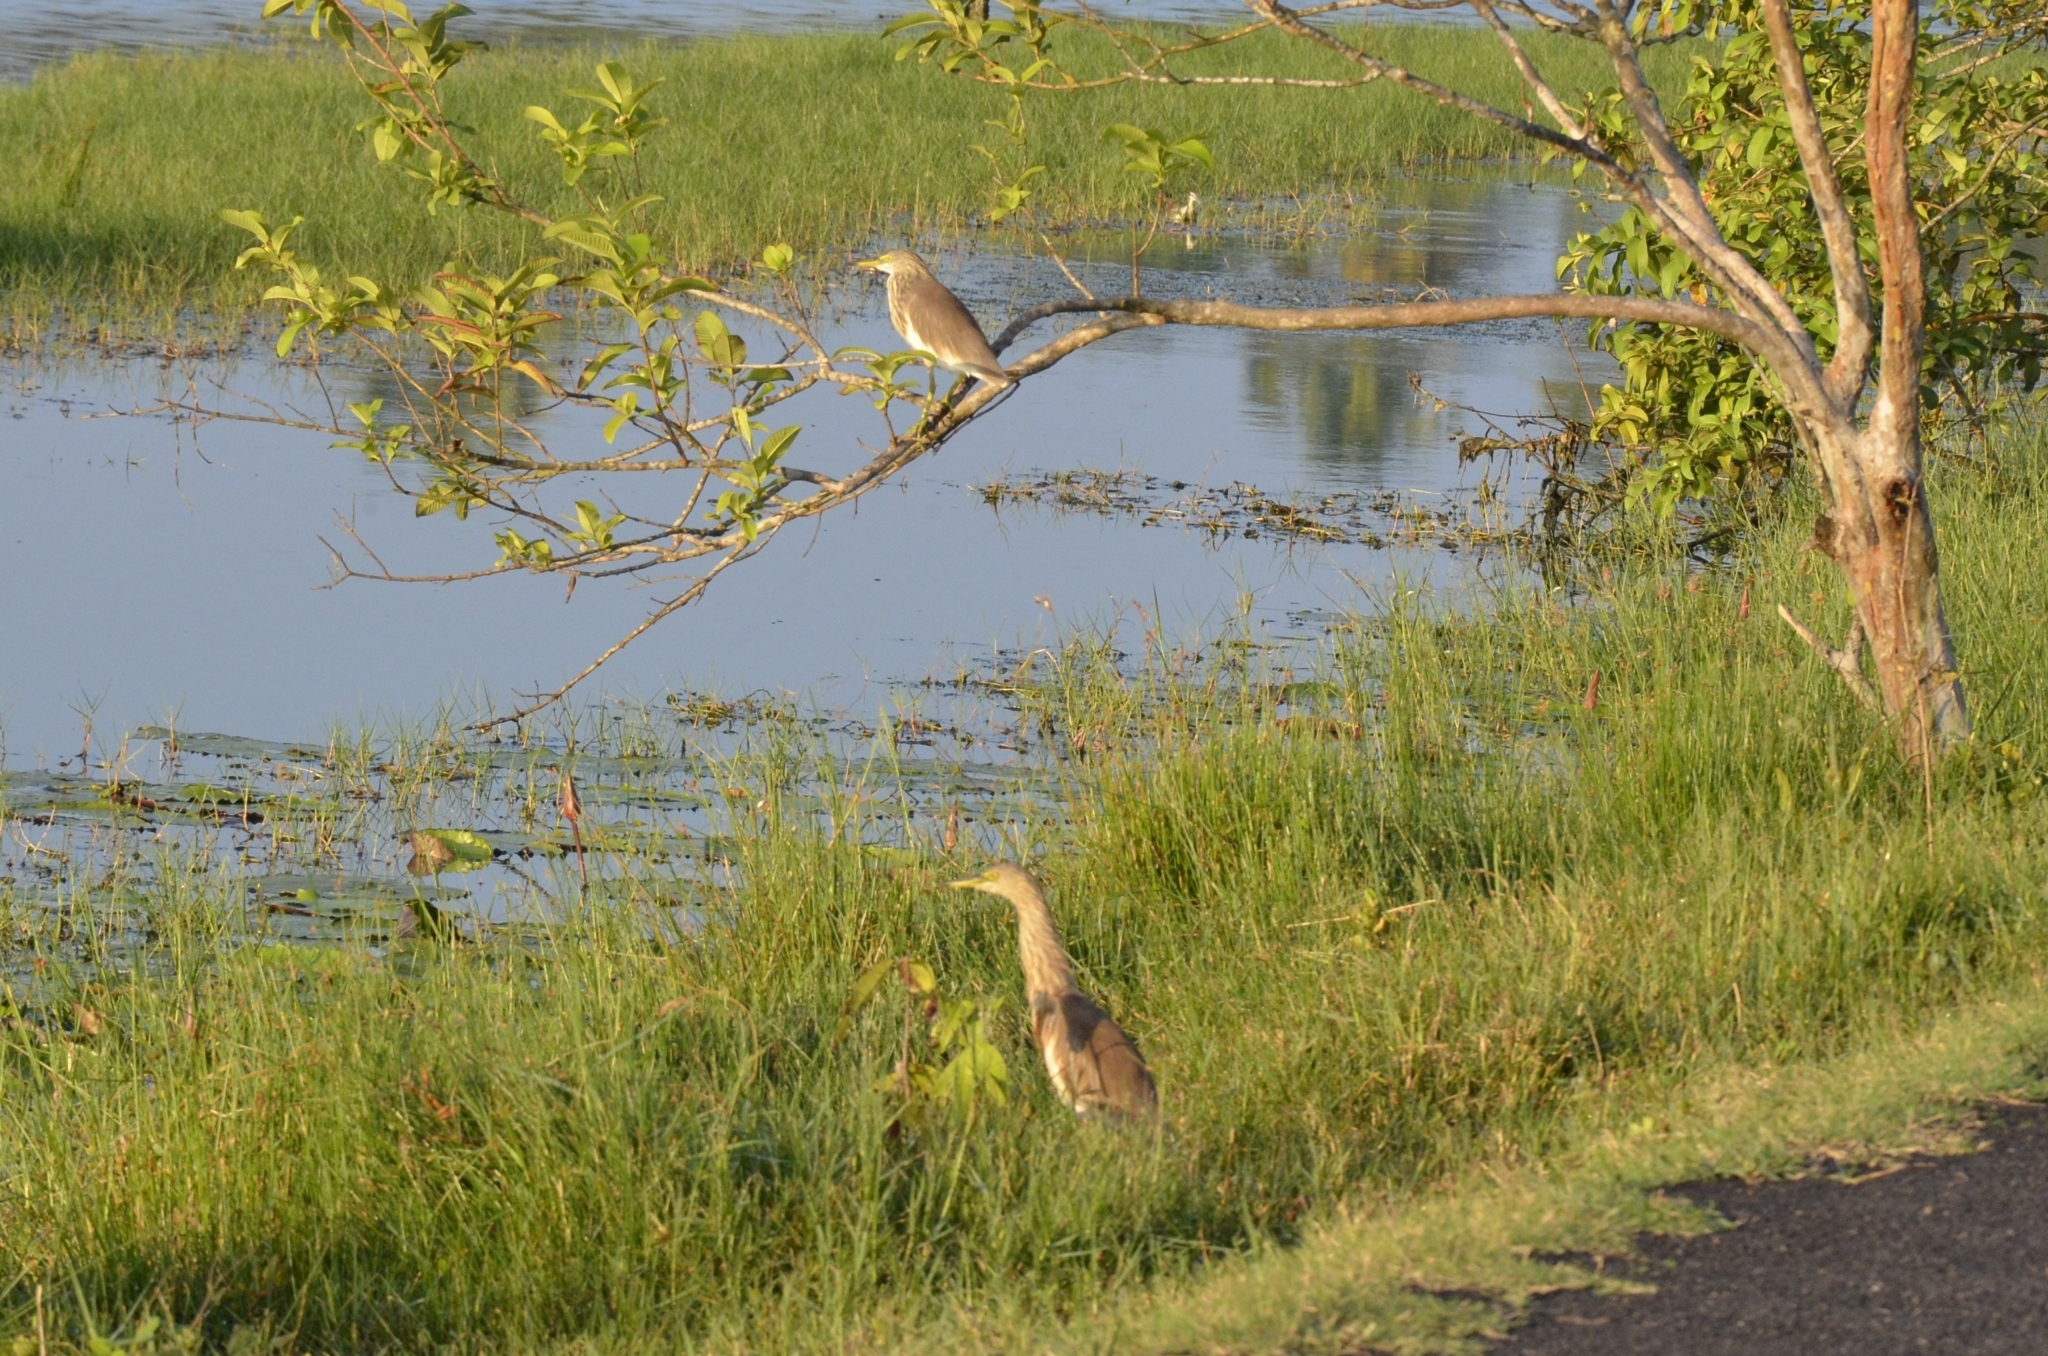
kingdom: Animalia
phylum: Chordata
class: Aves
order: Pelecaniformes
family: Ardeidae
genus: Ardeola
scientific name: Ardeola grayii
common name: Indian pond heron
